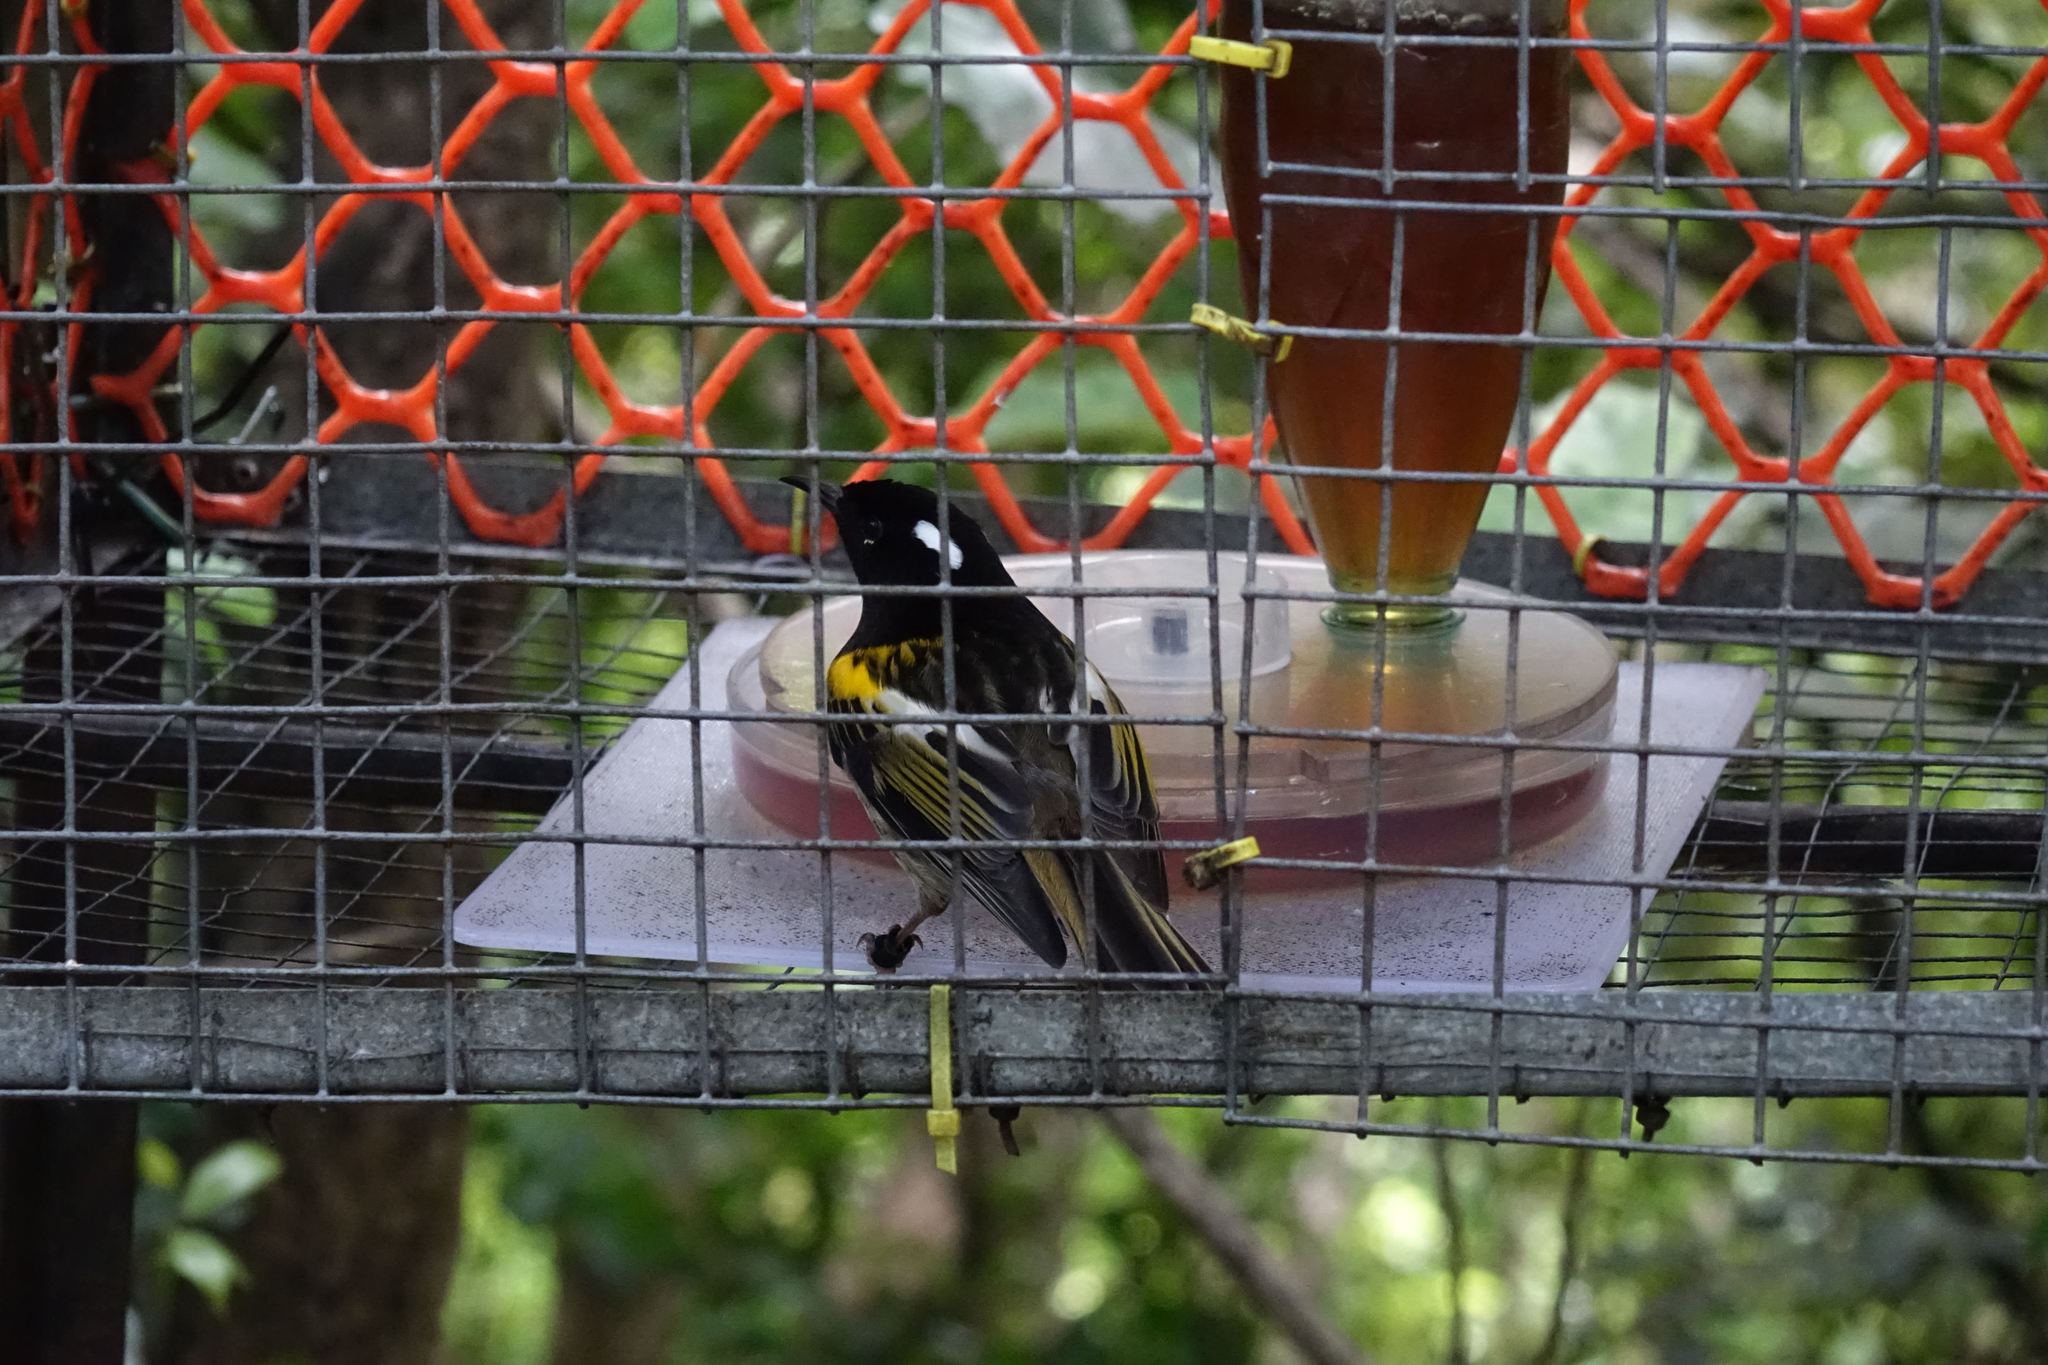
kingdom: Animalia
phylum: Chordata
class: Aves
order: Passeriformes
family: Notiomystidae
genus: Notiomystis
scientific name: Notiomystis cincta
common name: Stitchbird
